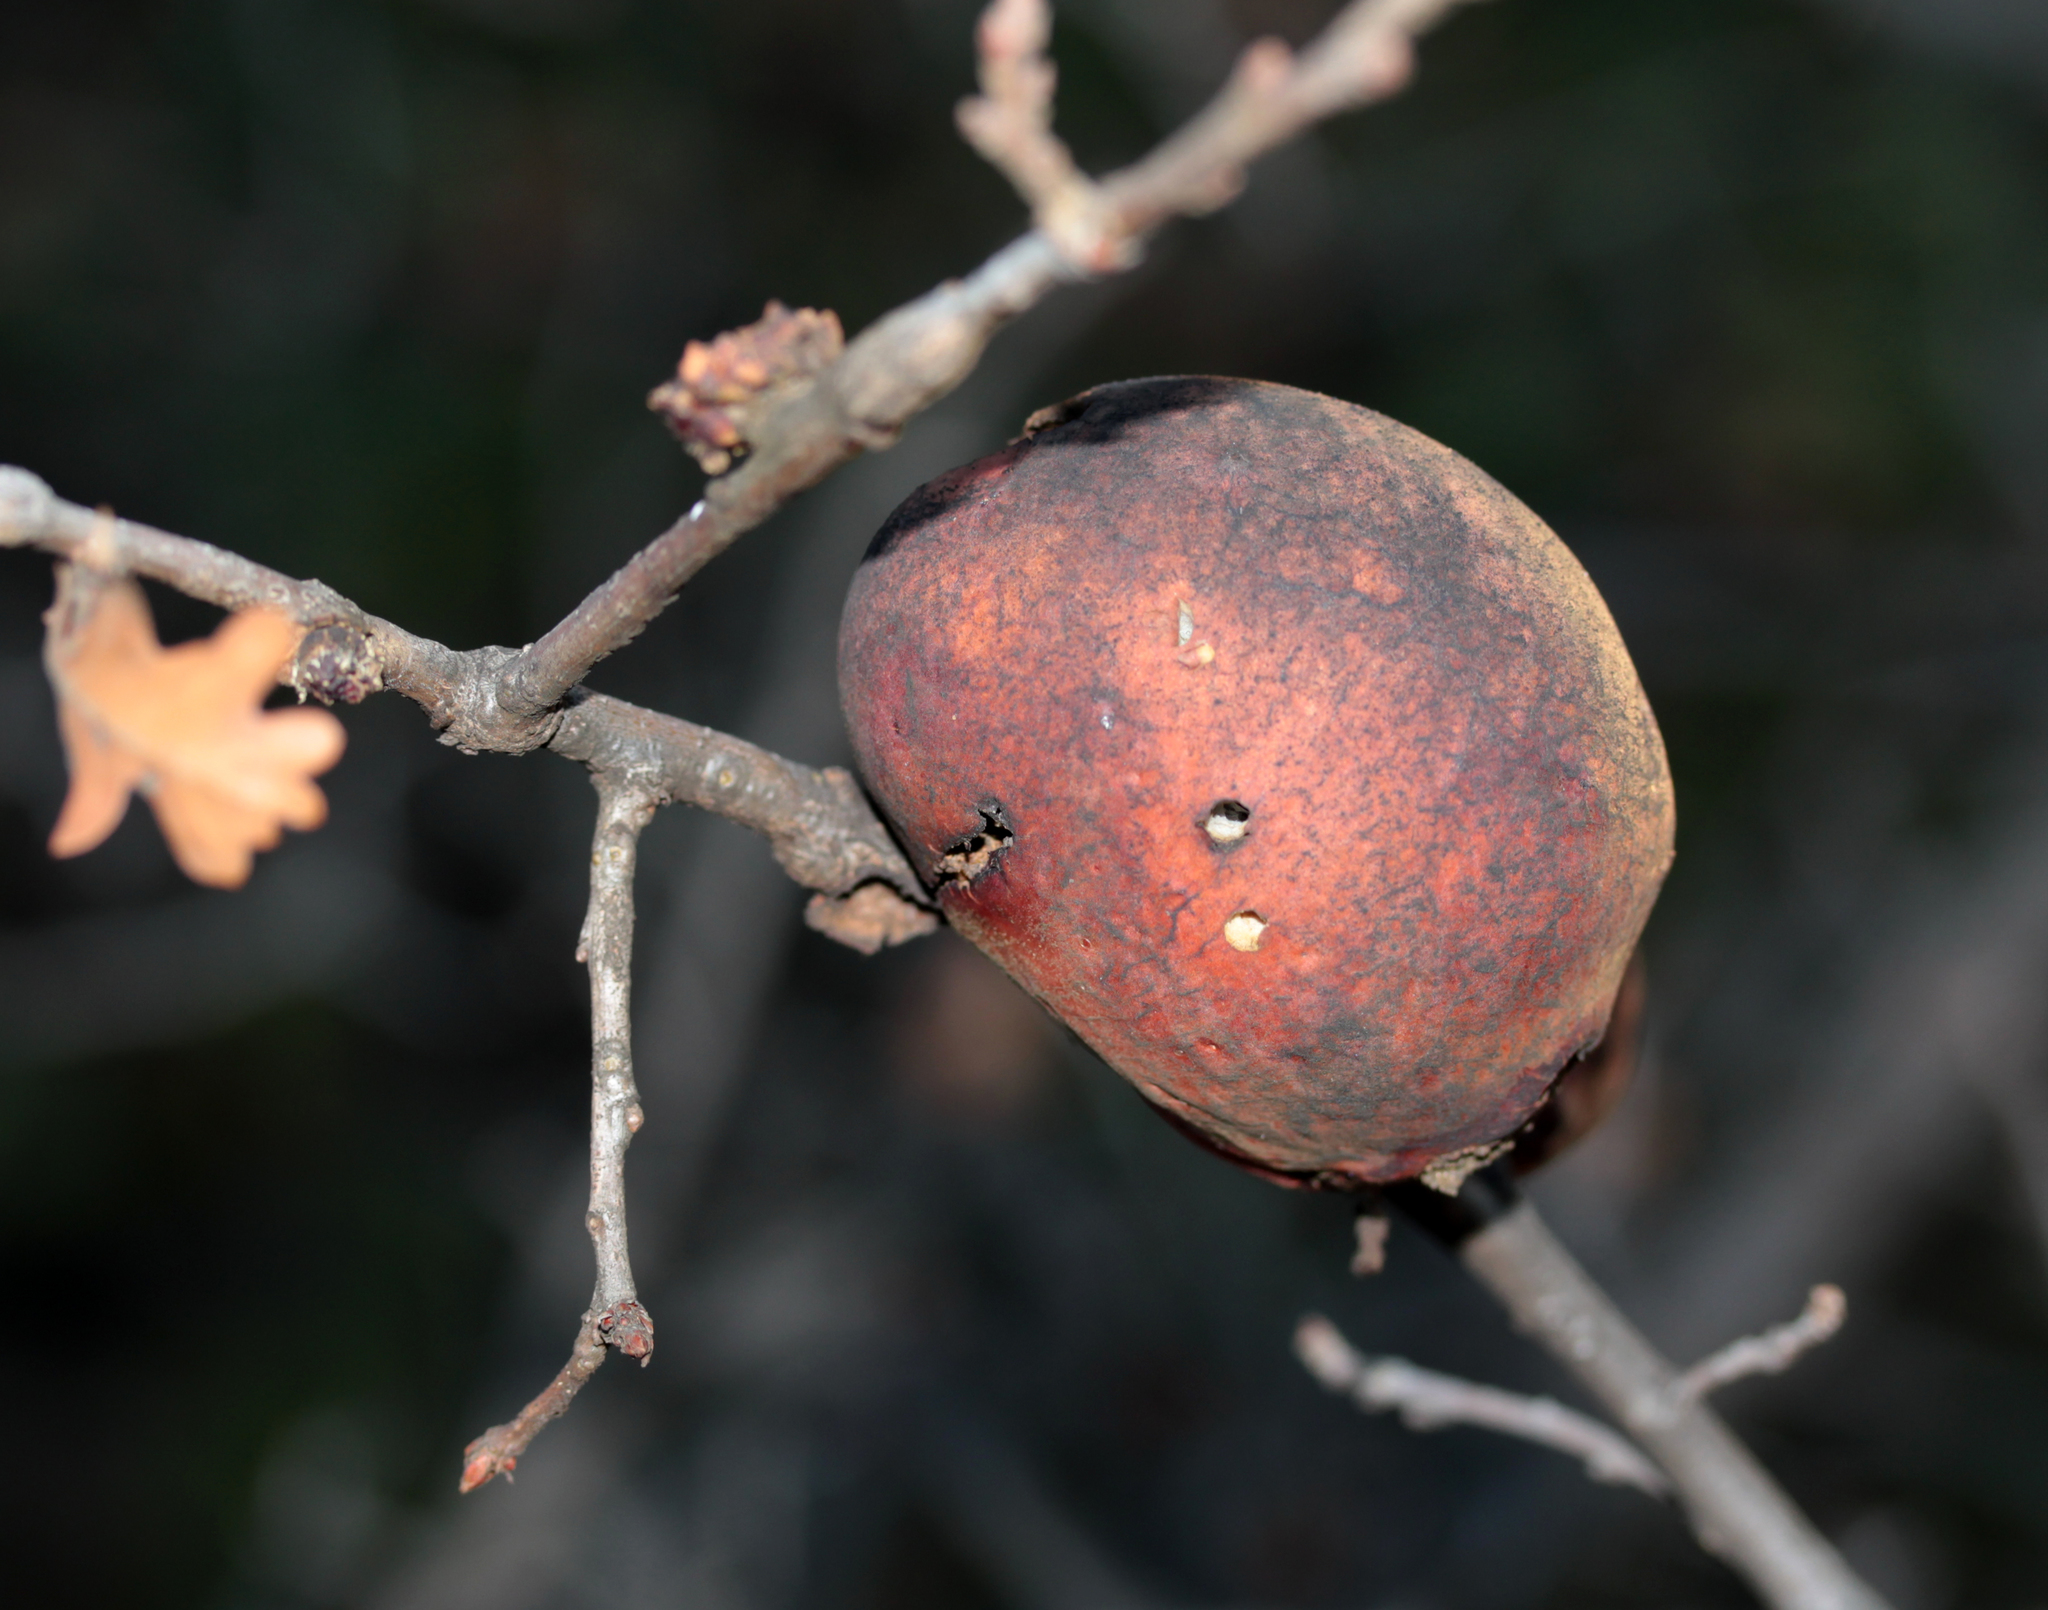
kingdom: Animalia
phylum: Arthropoda
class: Insecta
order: Hymenoptera
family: Cynipidae
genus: Andricus
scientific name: Andricus quercuscalifornicus
